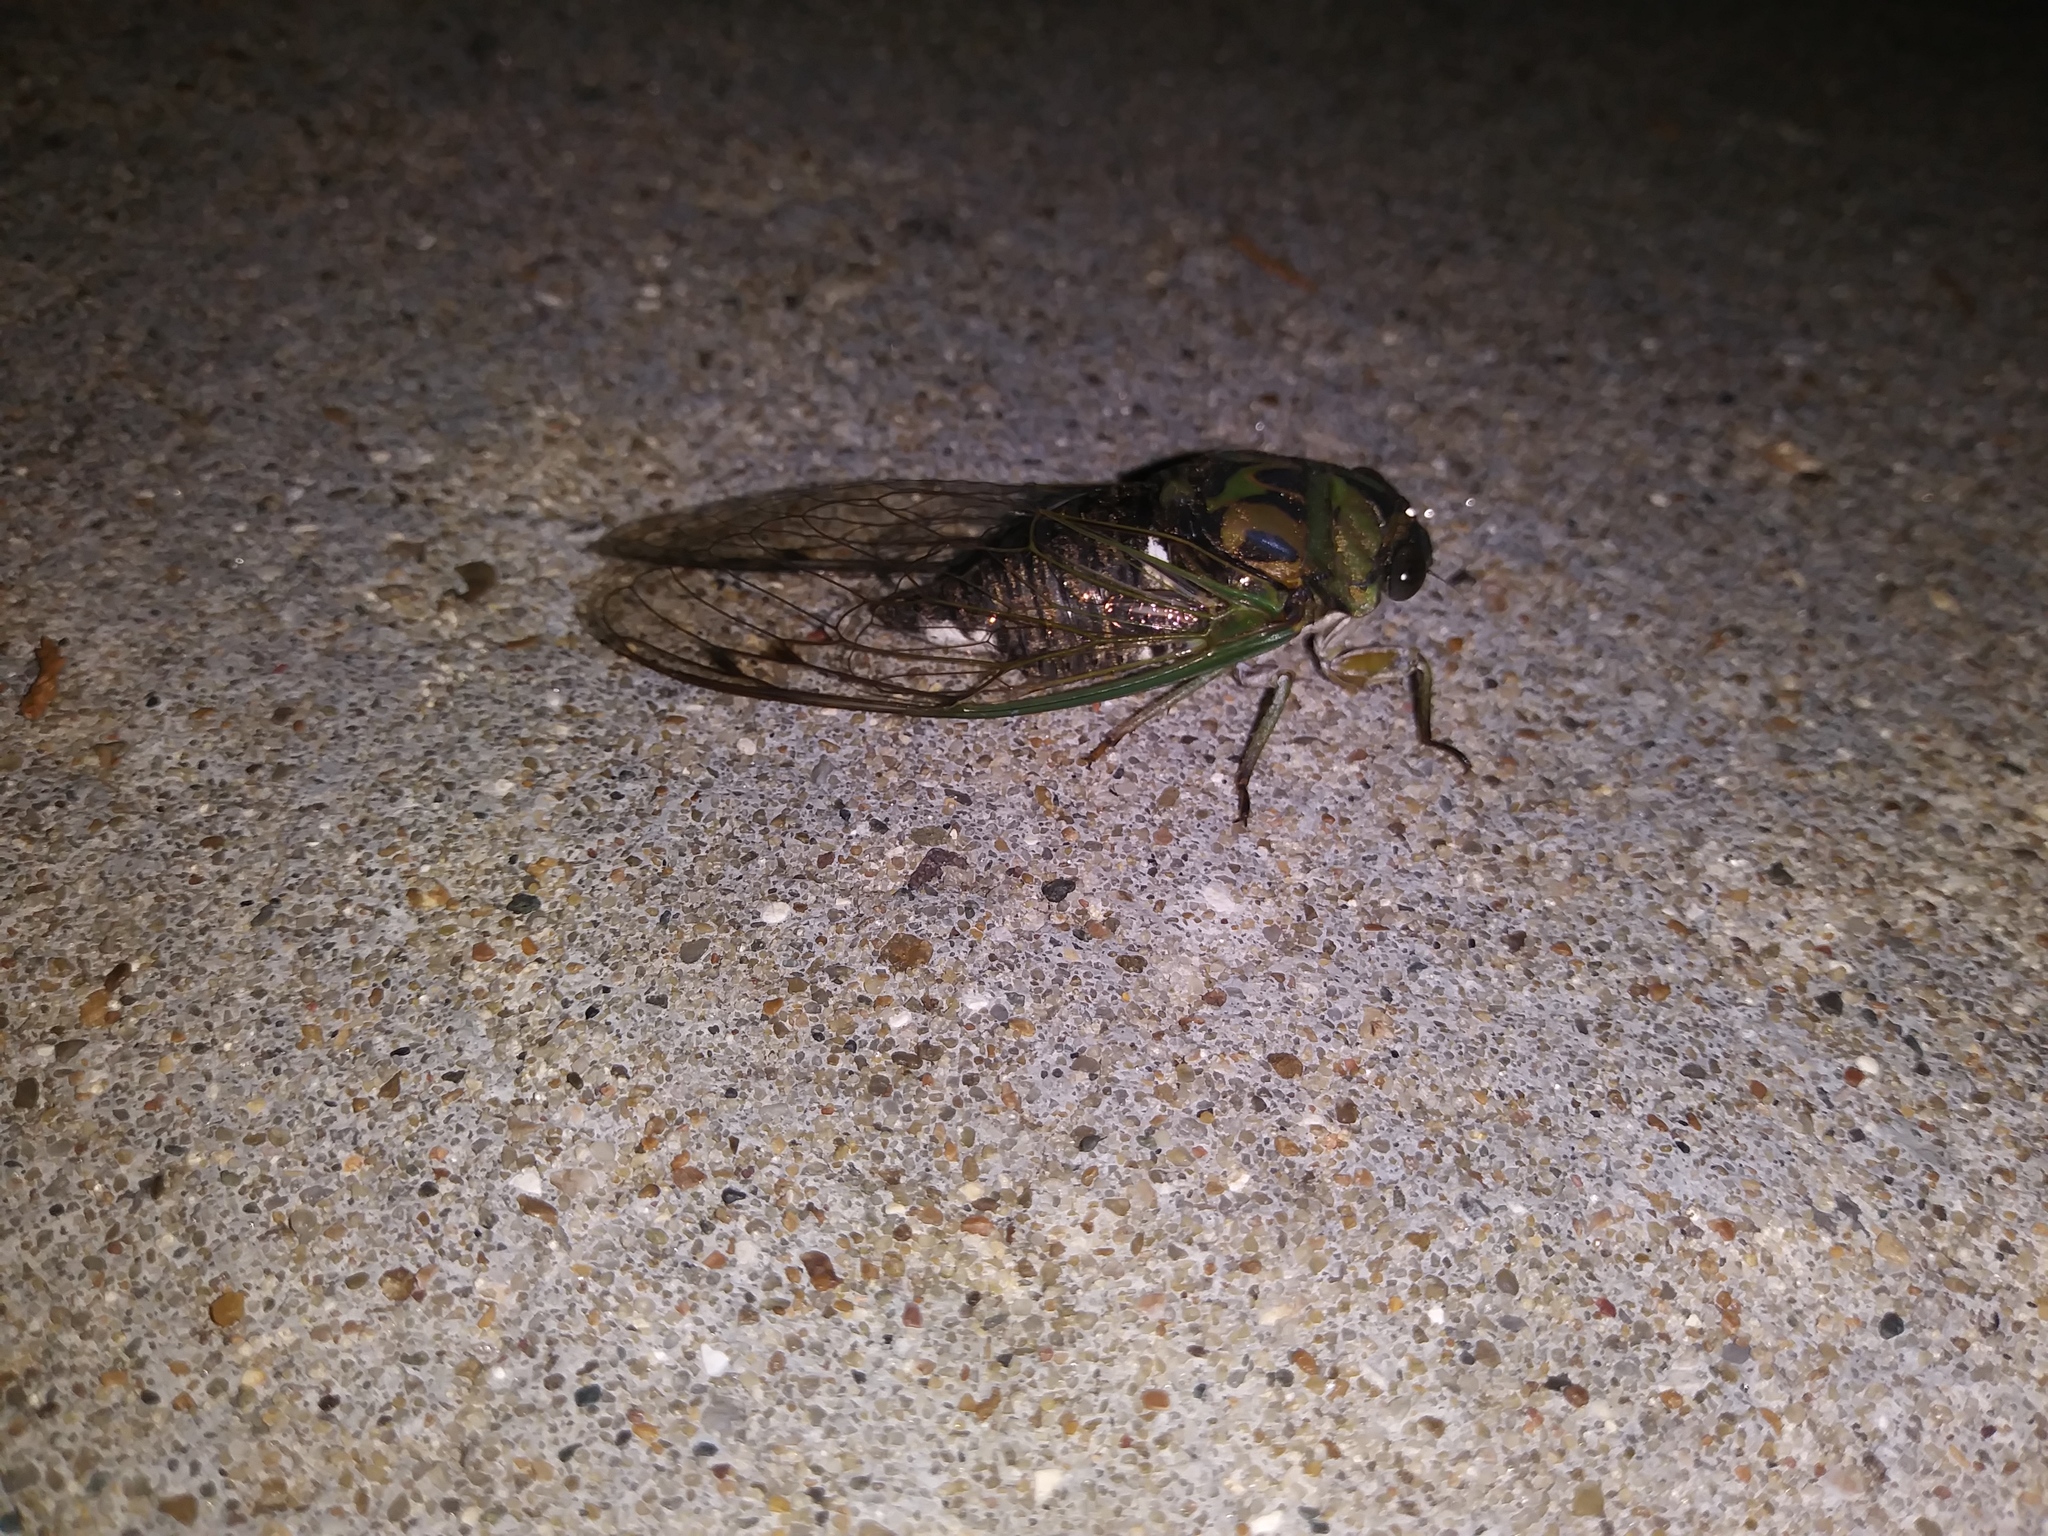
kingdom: Animalia
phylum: Arthropoda
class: Insecta
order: Hemiptera
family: Cicadidae
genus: Neotibicen
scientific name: Neotibicen pruinosus
